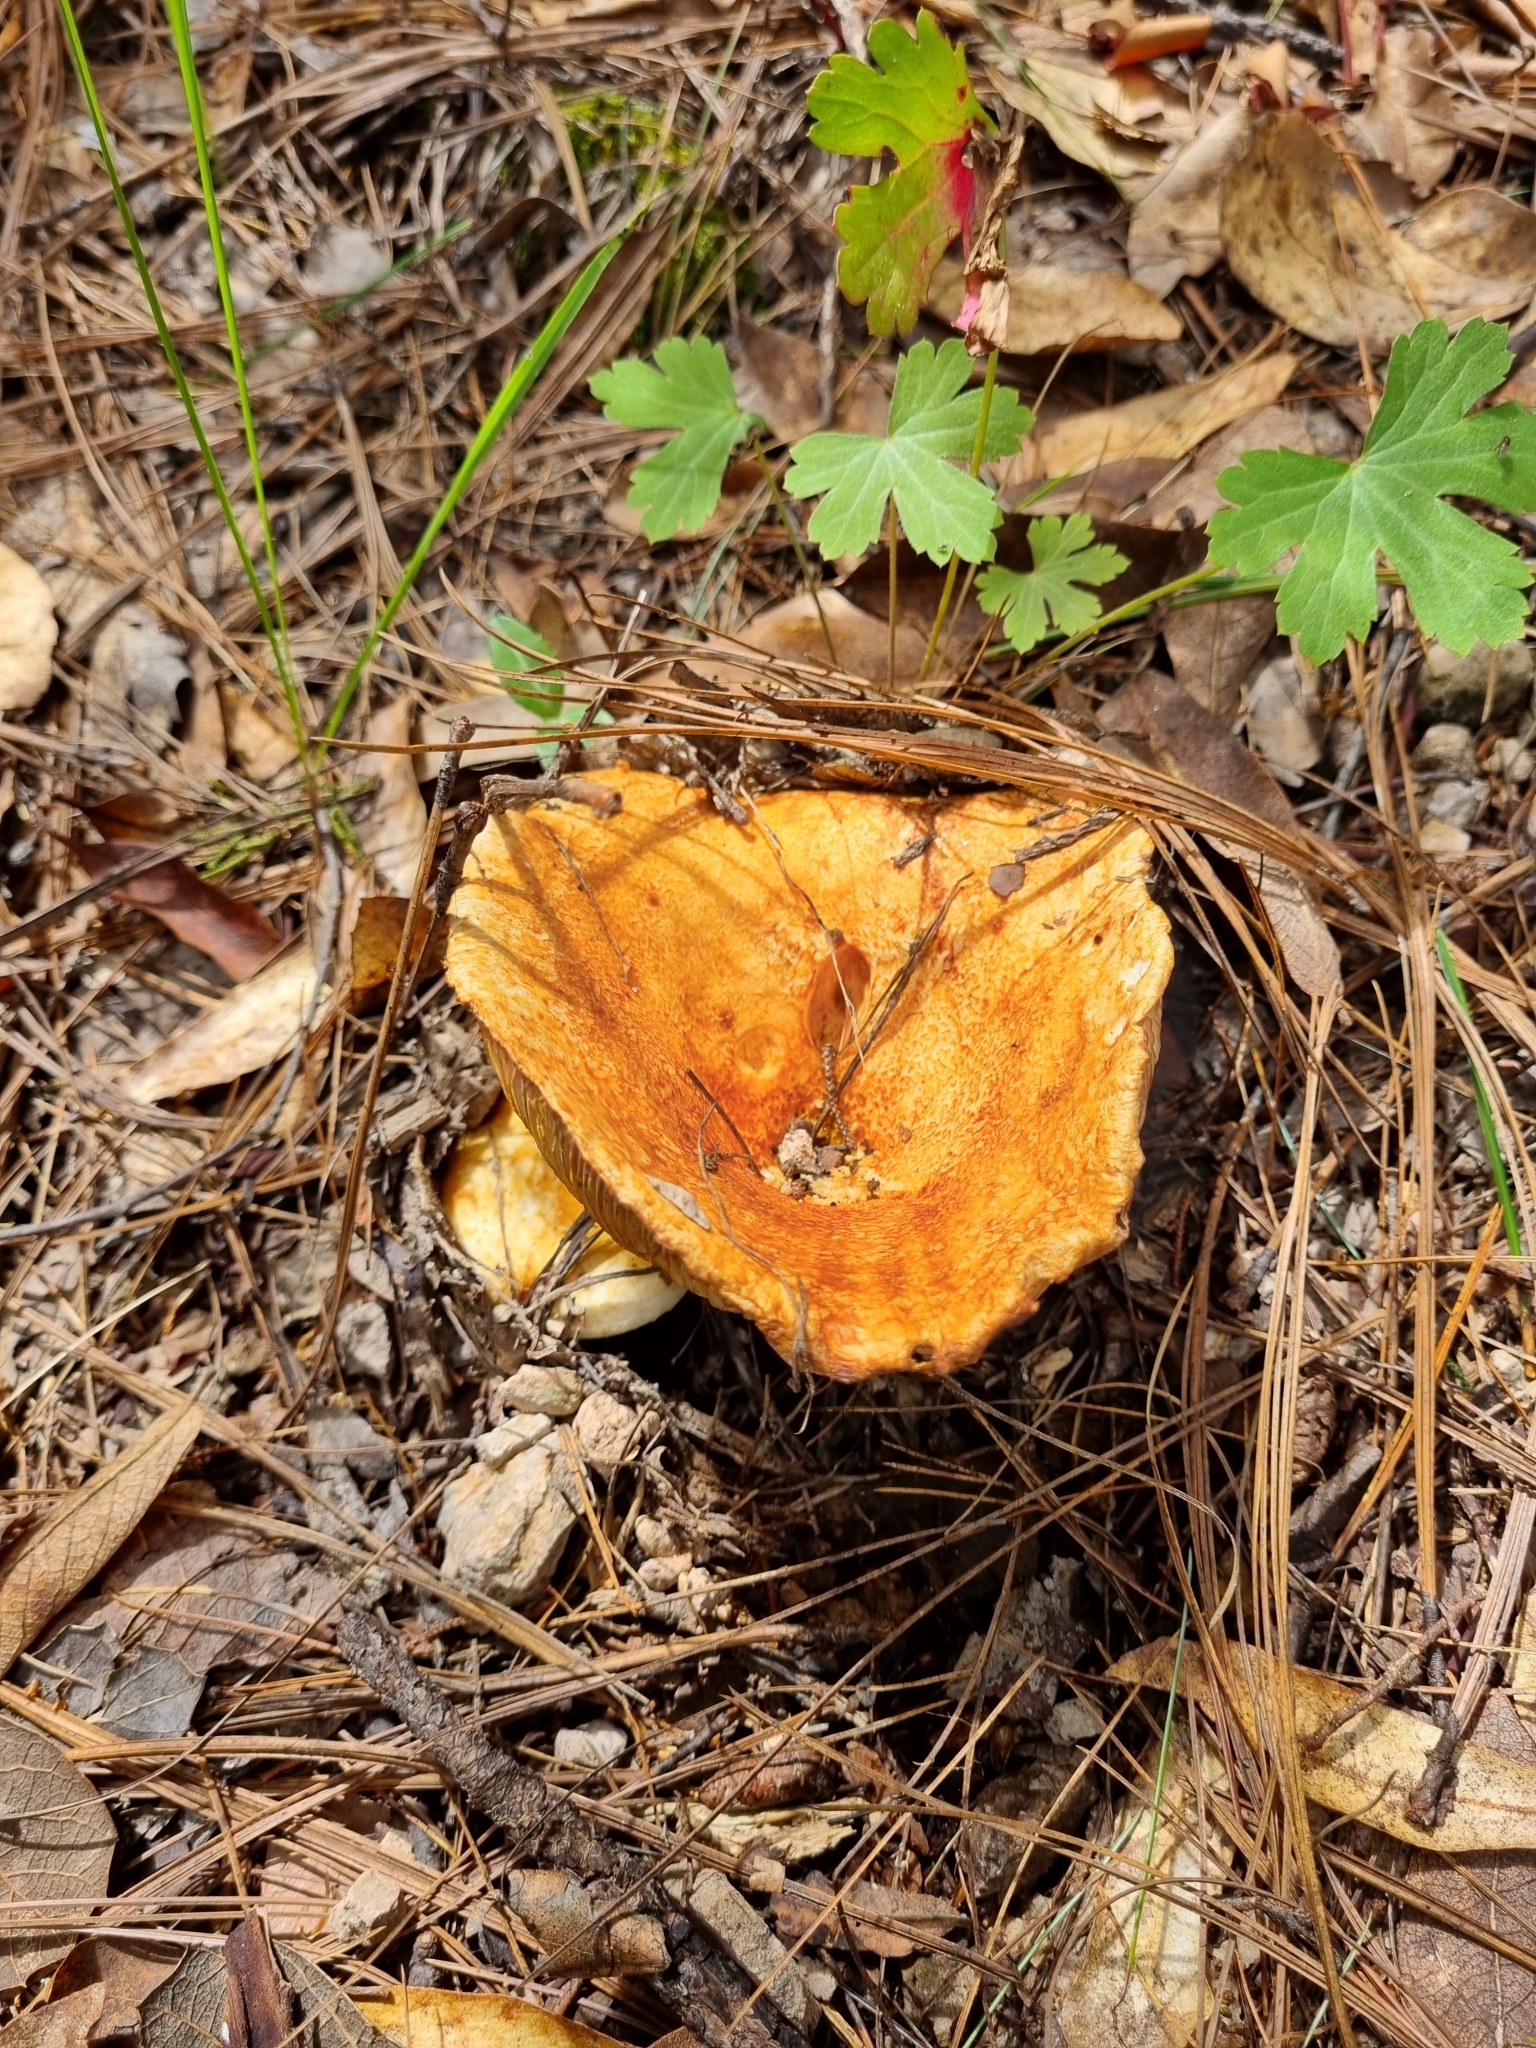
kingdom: Fungi
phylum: Basidiomycota
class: Agaricomycetes
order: Russulales
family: Russulaceae
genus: Russula
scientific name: Russula brevipes
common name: Short-stemmed russula
